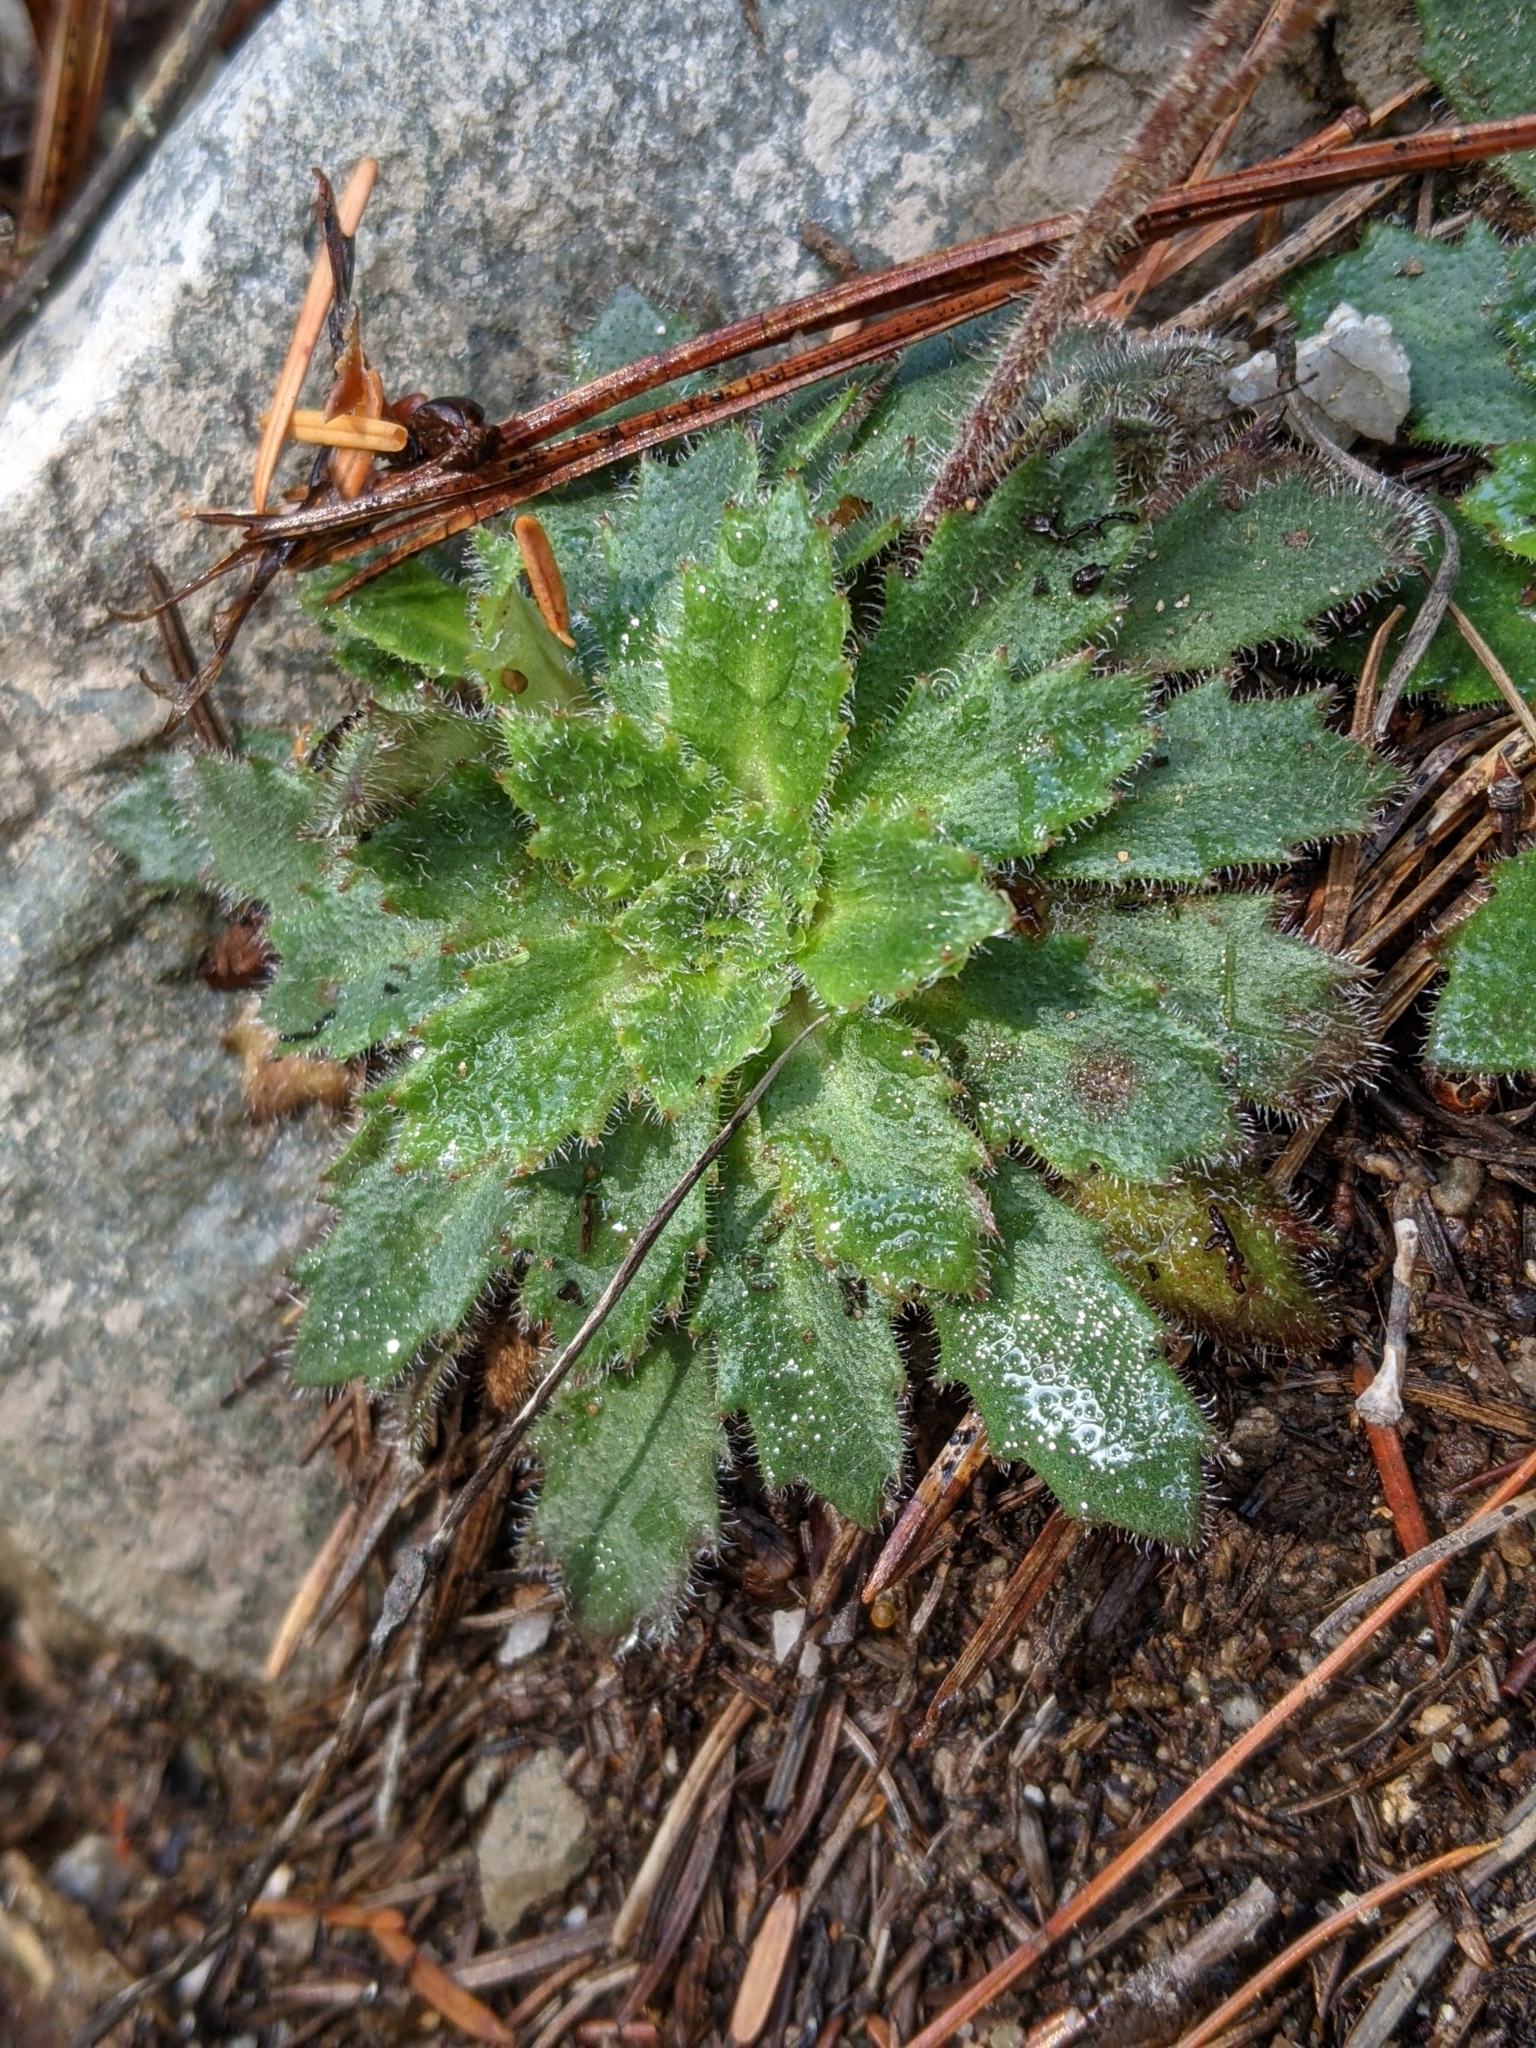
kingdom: Plantae
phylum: Tracheophyta
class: Magnoliopsida
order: Saxifragales
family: Saxifragaceae
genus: Micranthes
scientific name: Micranthes ferruginea
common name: Rusty saxifrage
